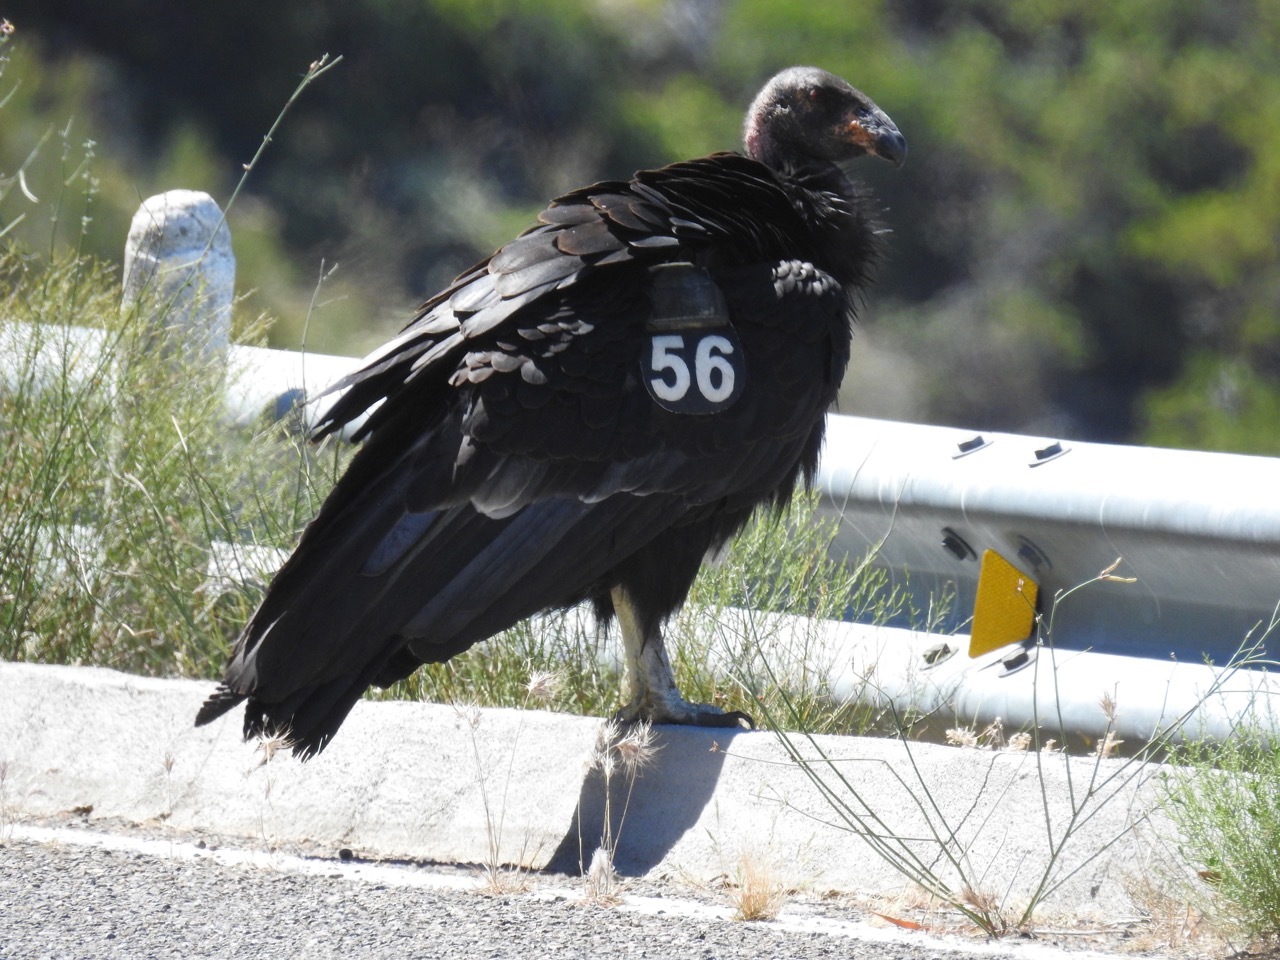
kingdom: Animalia
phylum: Chordata
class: Aves
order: Accipitriformes
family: Cathartidae
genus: Gymnogyps
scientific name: Gymnogyps californianus
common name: California condor
